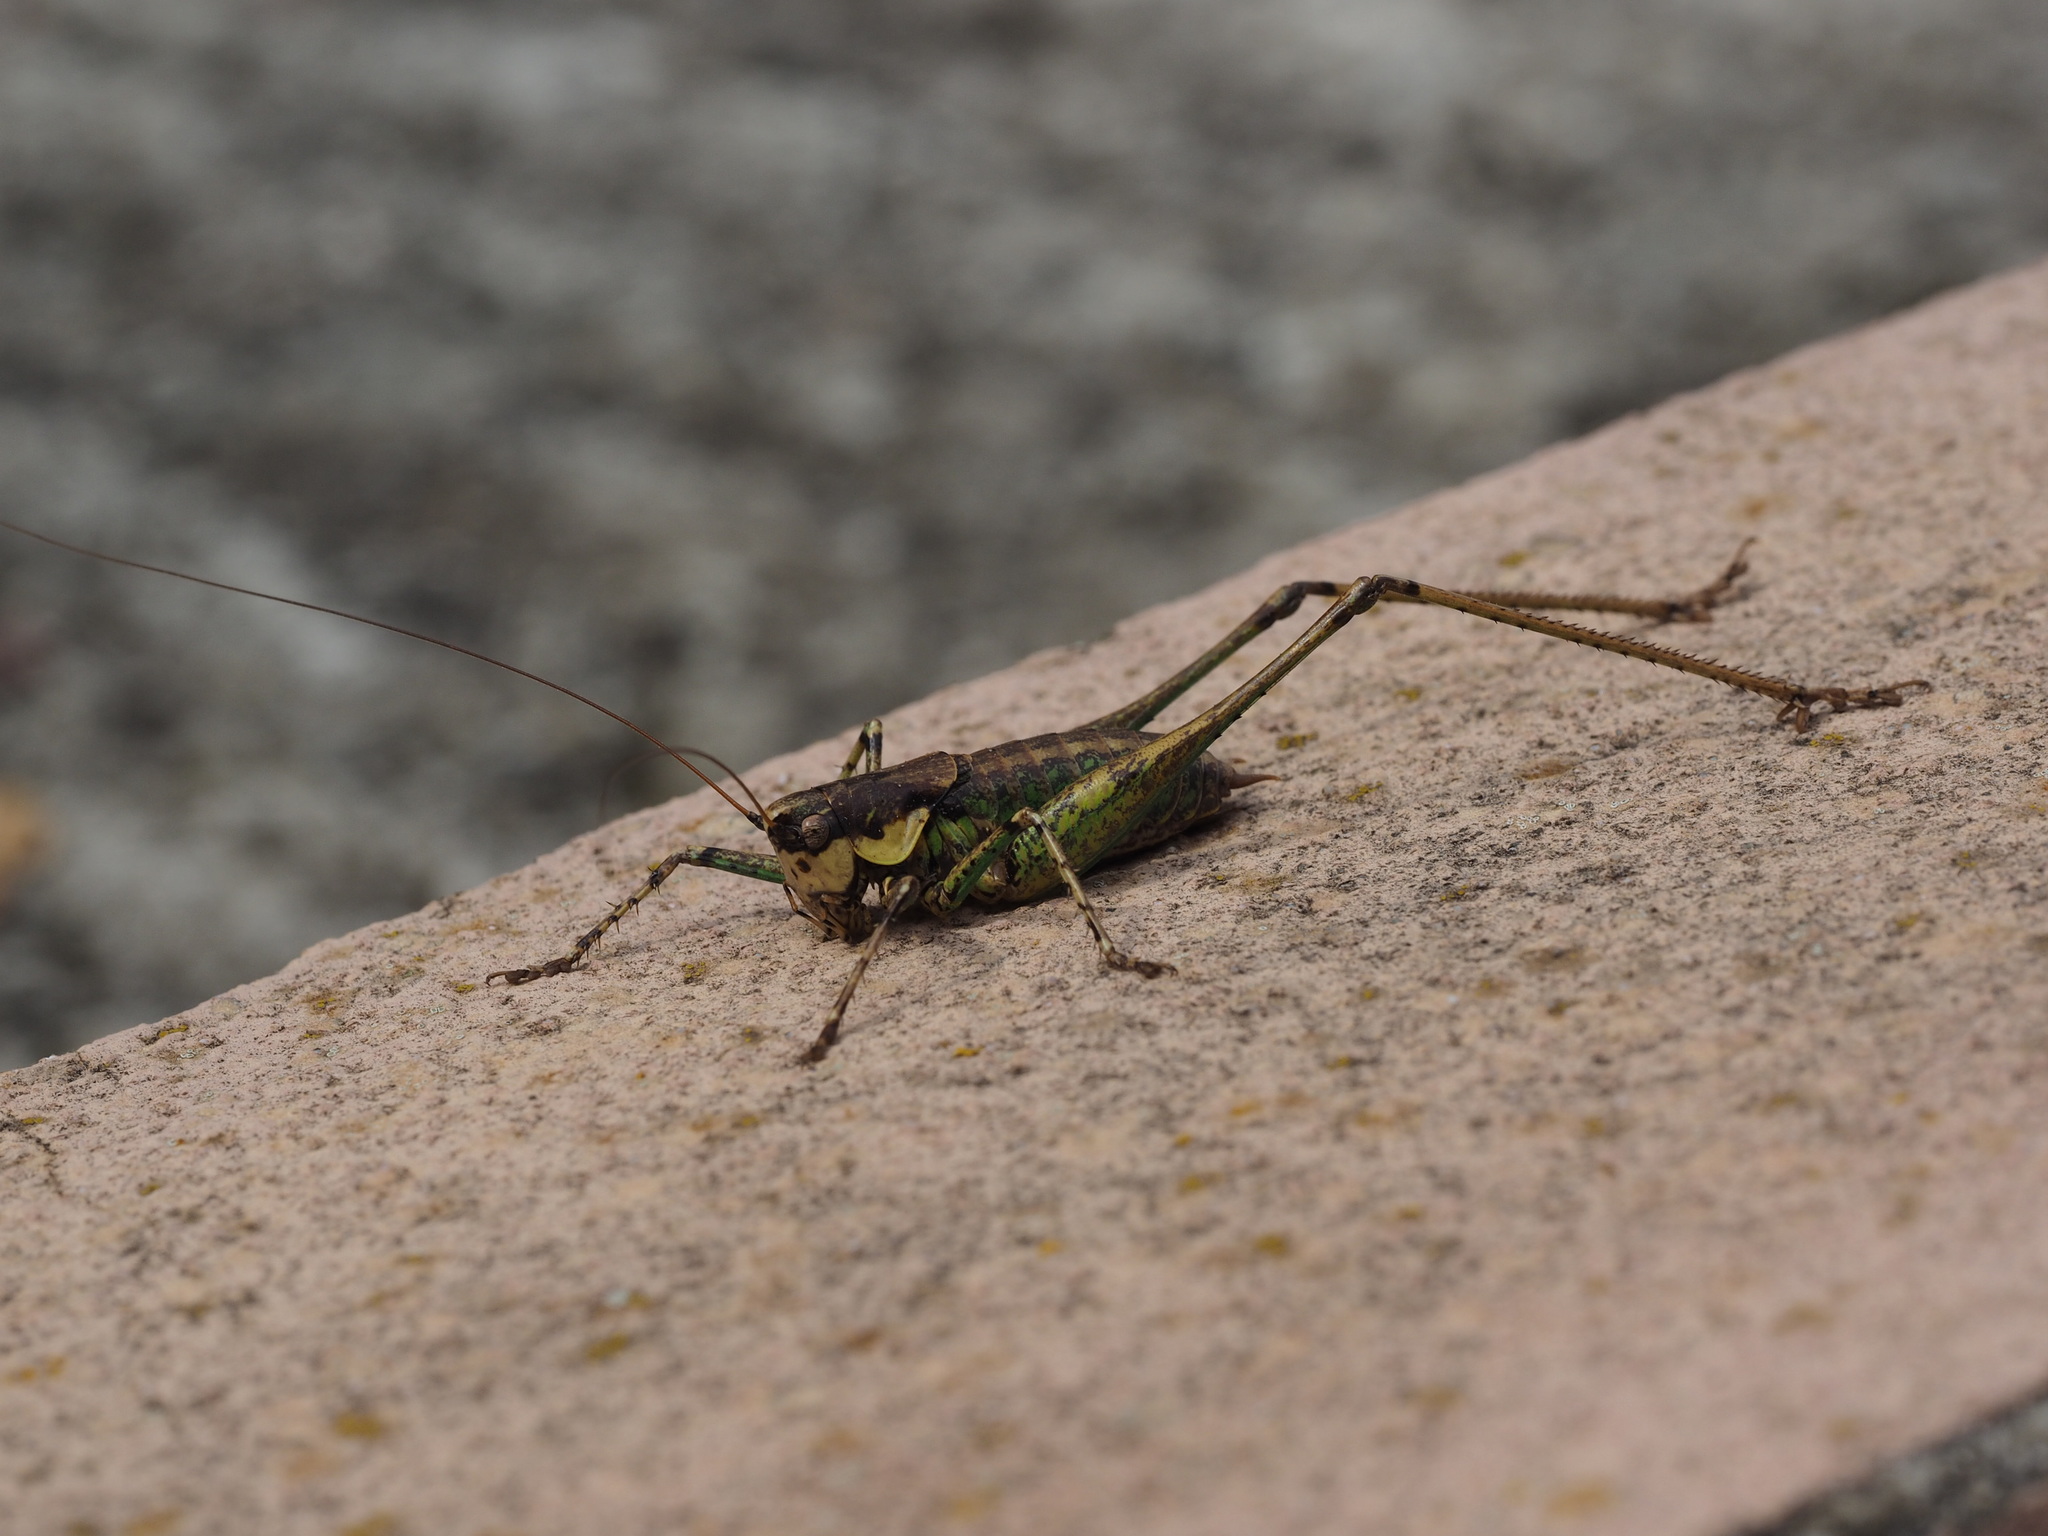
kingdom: Animalia
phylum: Arthropoda
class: Insecta
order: Orthoptera
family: Tettigoniidae
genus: Rhacocleis
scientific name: Rhacocleis annulata
